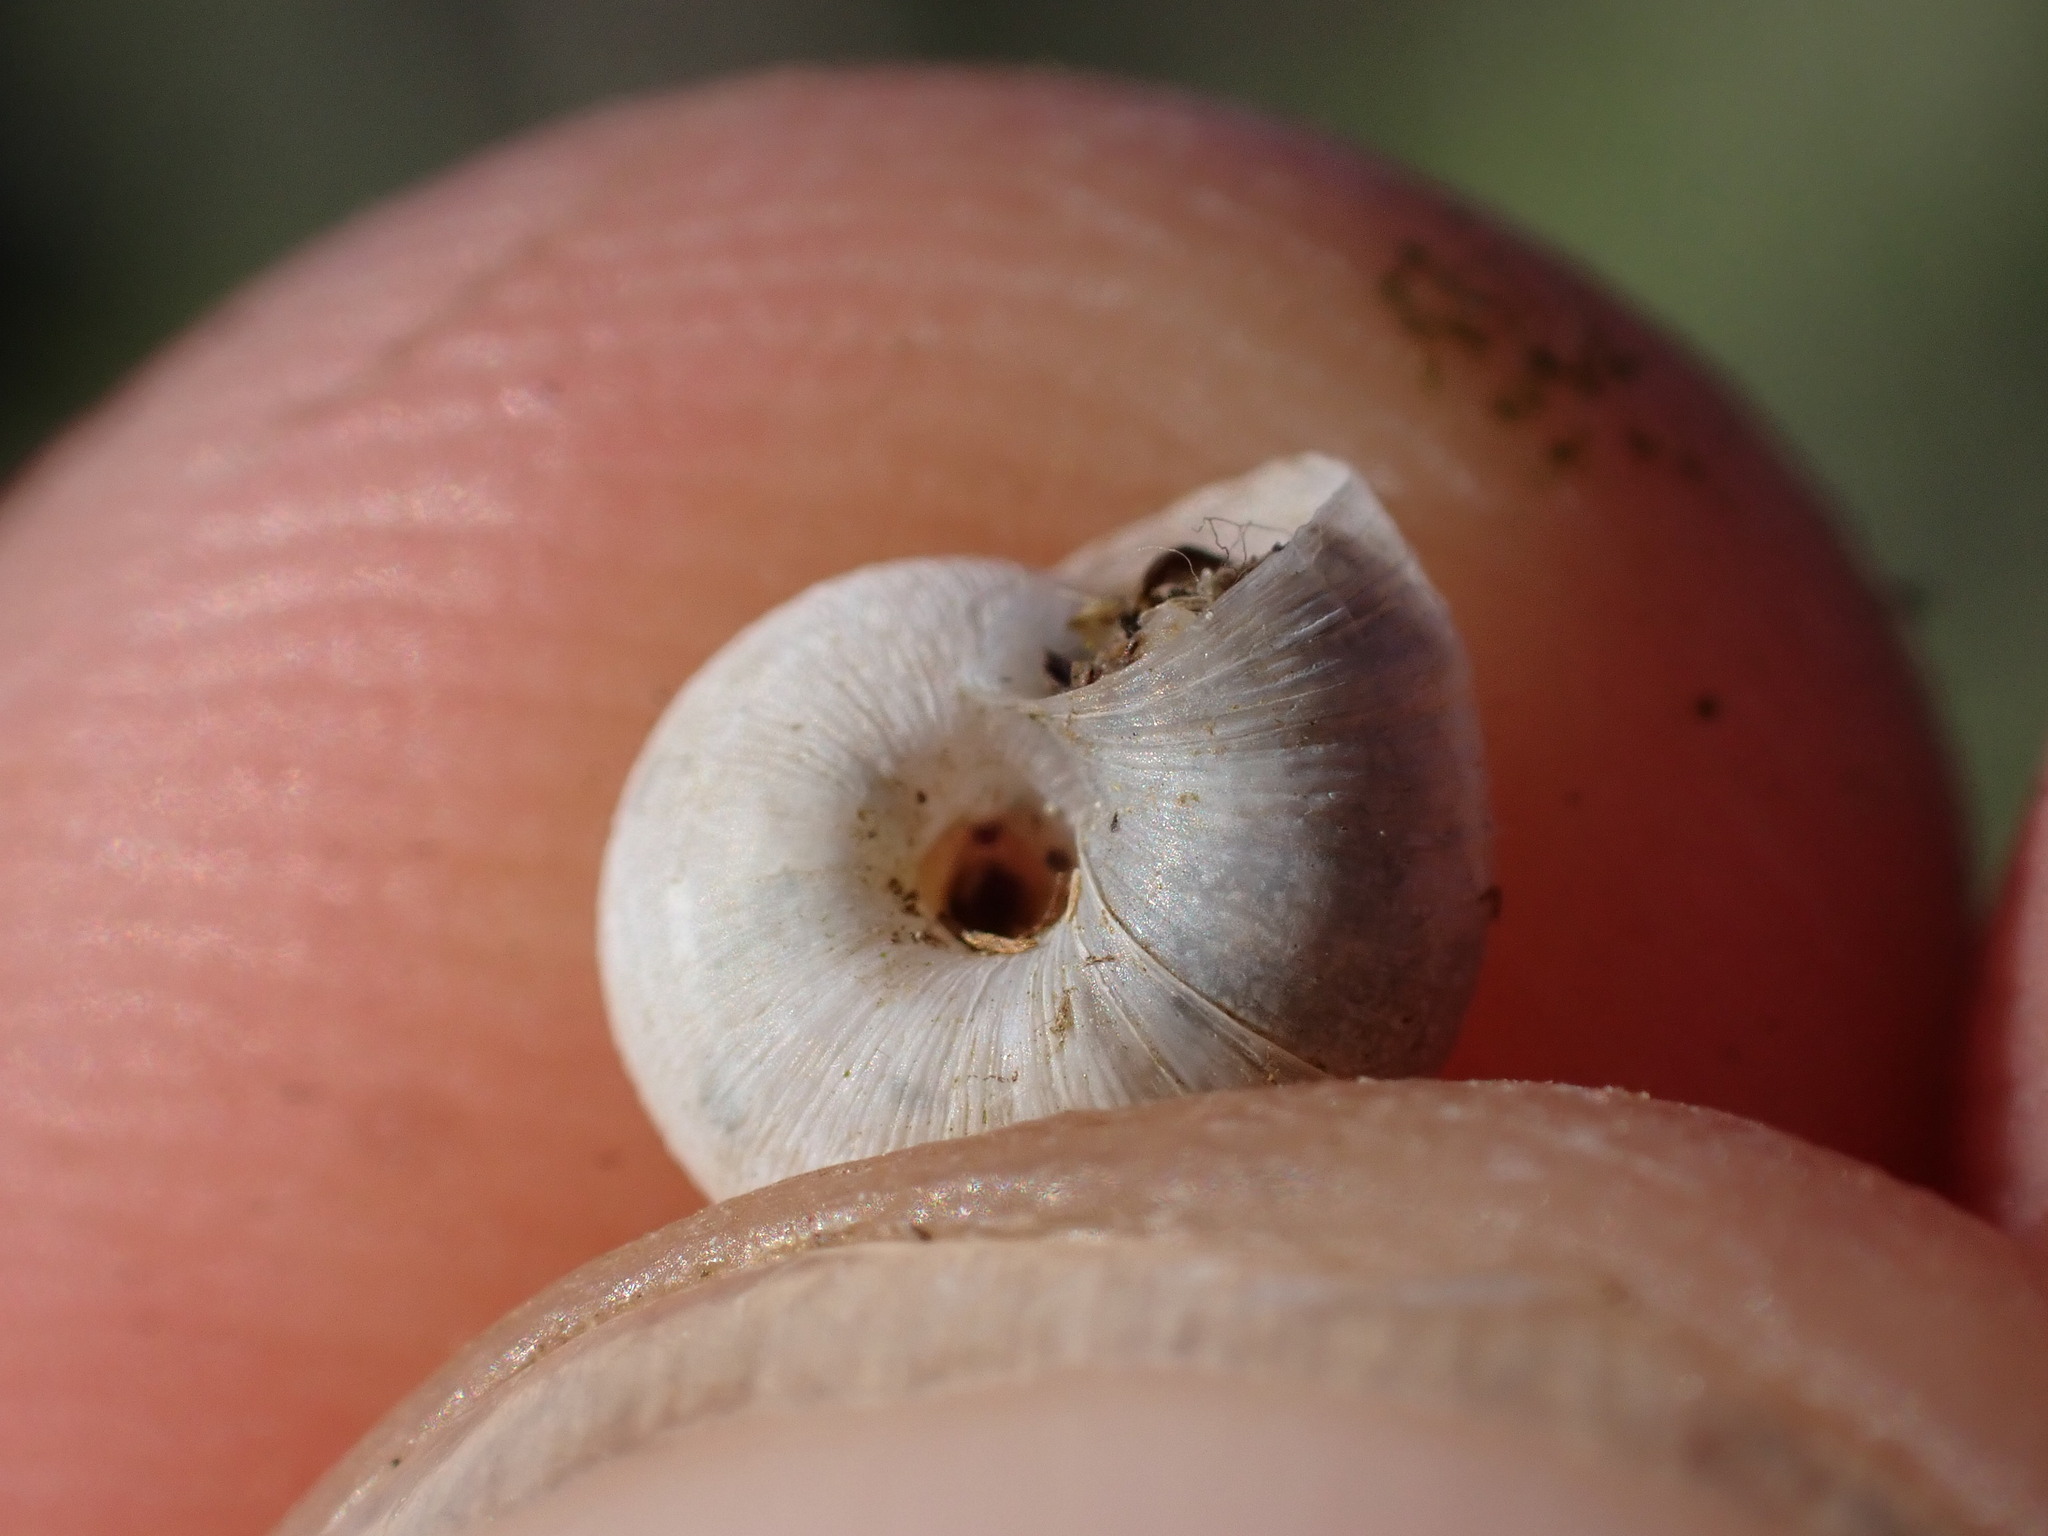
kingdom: Animalia
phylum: Mollusca
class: Gastropoda
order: Stylommatophora
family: Geomitridae
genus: Xerotricha
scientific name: Xerotricha apicina
